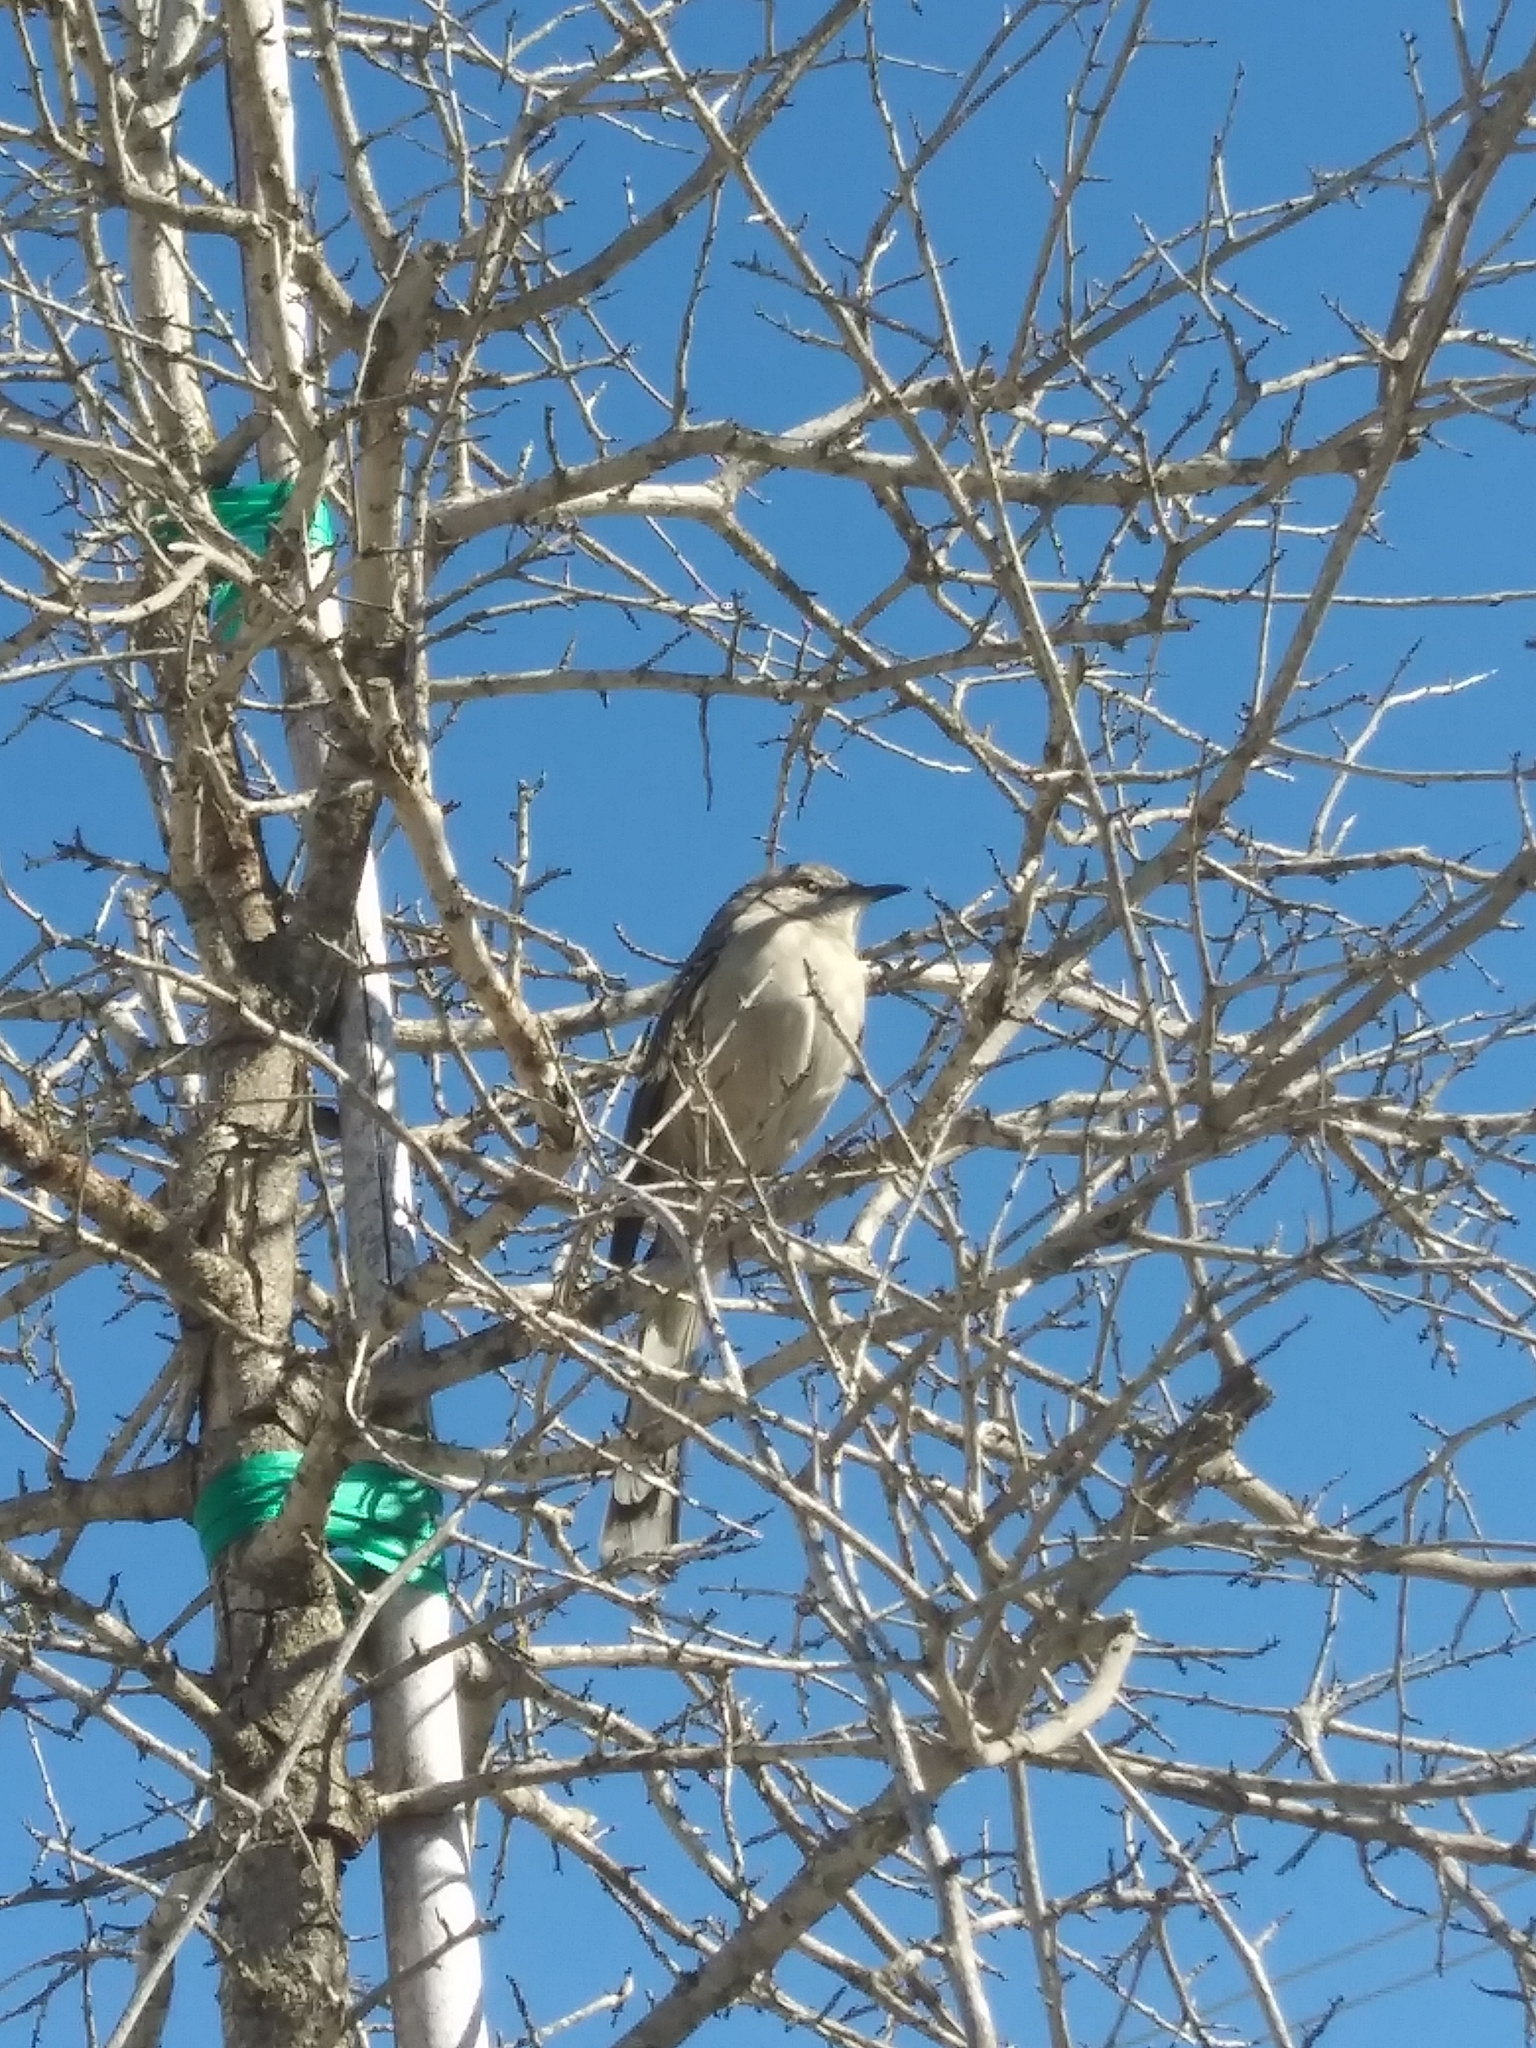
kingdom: Animalia
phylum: Chordata
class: Aves
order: Passeriformes
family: Mimidae
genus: Mimus
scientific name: Mimus polyglottos
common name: Northern mockingbird
